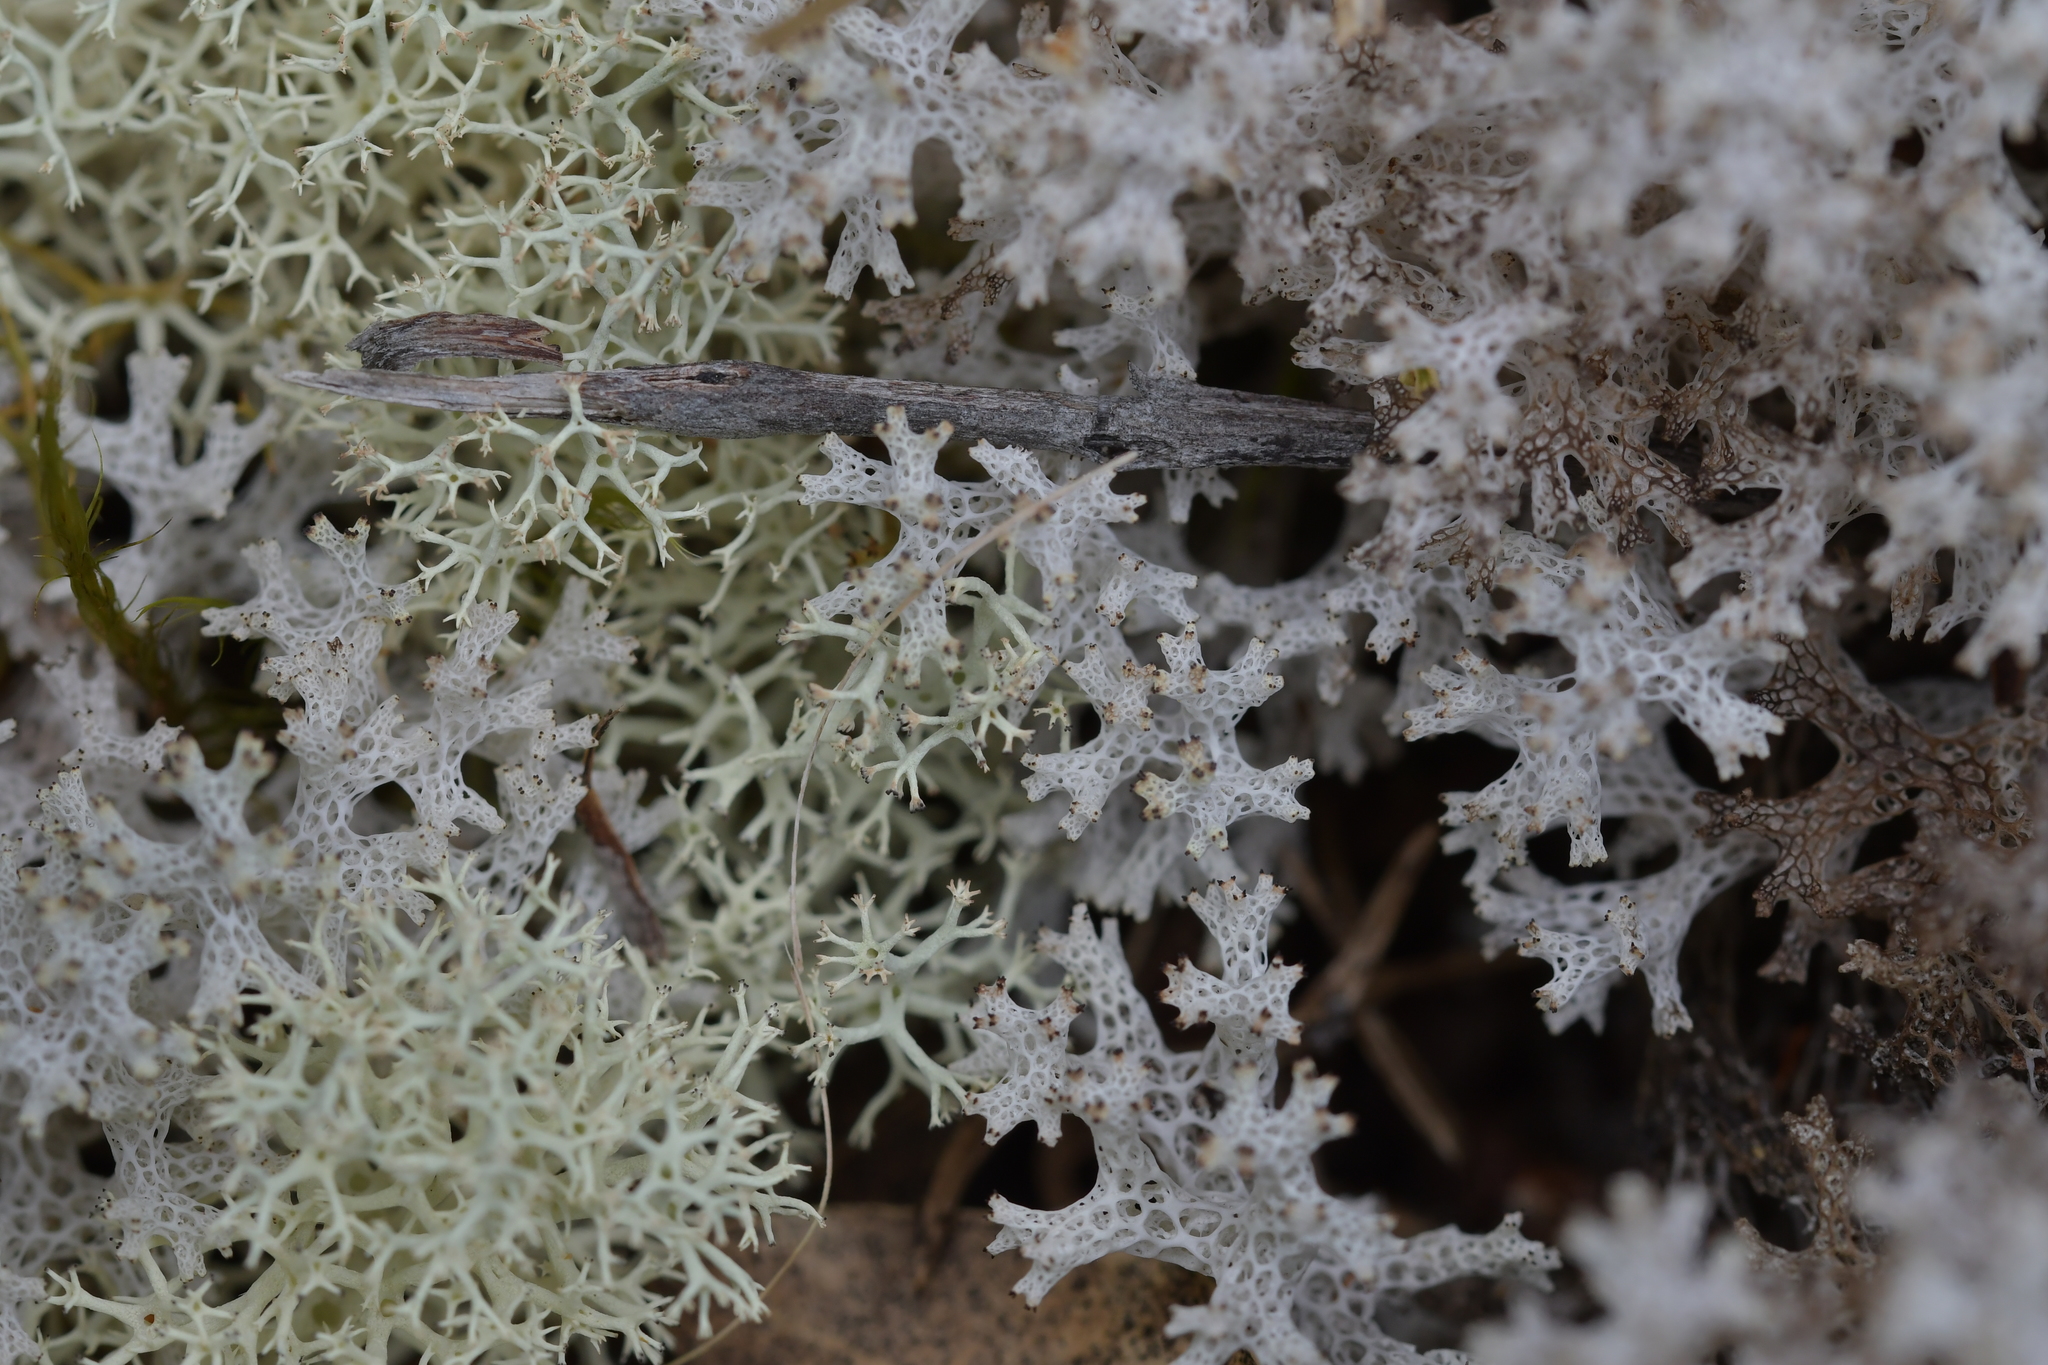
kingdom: Fungi
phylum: Ascomycota
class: Lecanoromycetes
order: Lecanorales
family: Cladoniaceae
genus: Pulchrocladia
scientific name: Pulchrocladia retipora
